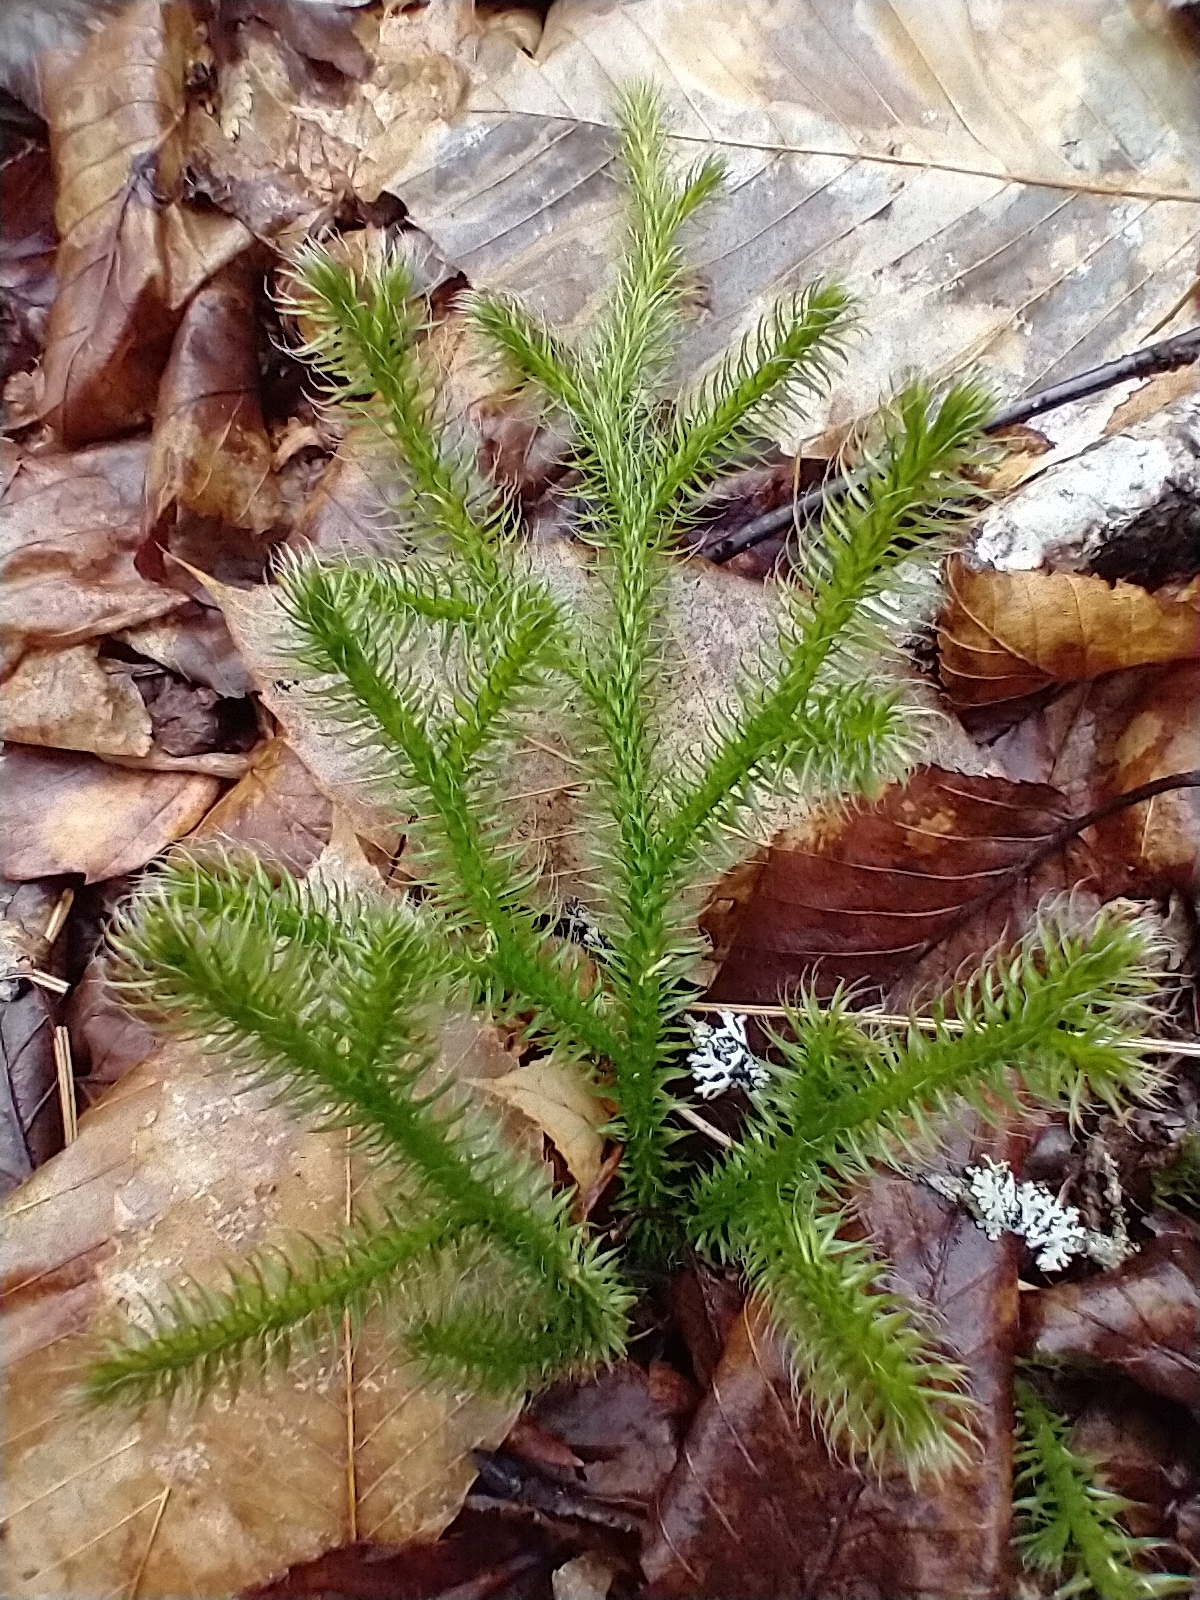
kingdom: Plantae
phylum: Tracheophyta
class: Lycopodiopsida
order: Lycopodiales
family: Lycopodiaceae
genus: Lycopodium
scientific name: Lycopodium clavatum
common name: Stag's-horn clubmoss
